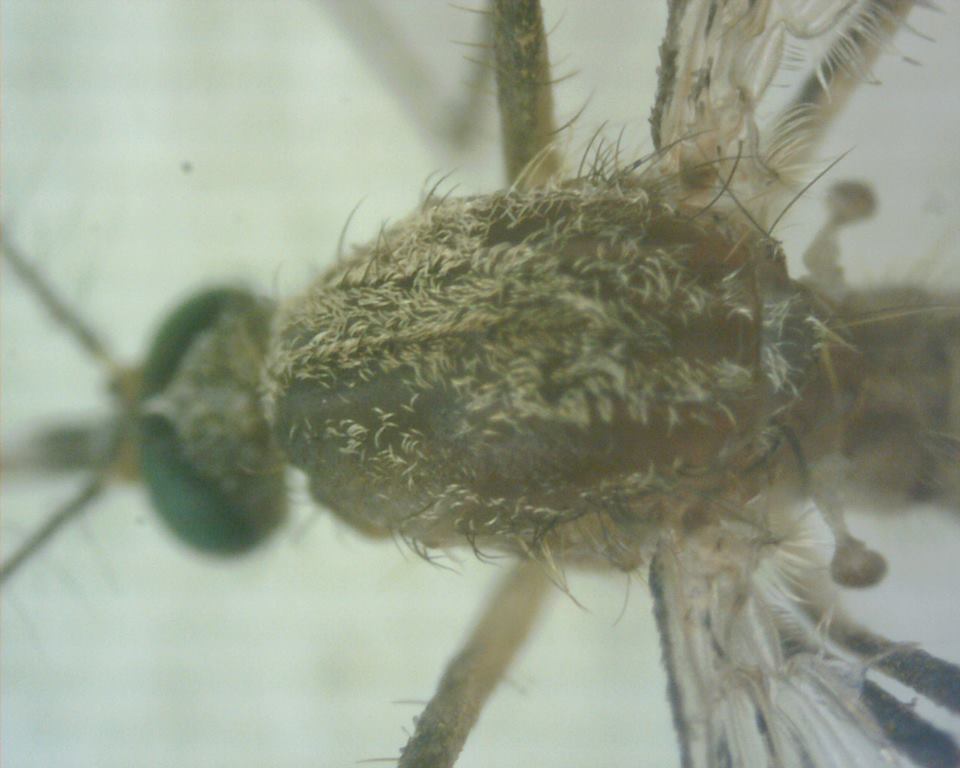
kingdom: Animalia
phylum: Arthropoda
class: Insecta
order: Diptera
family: Culicidae
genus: Culex
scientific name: Culex gelidus
